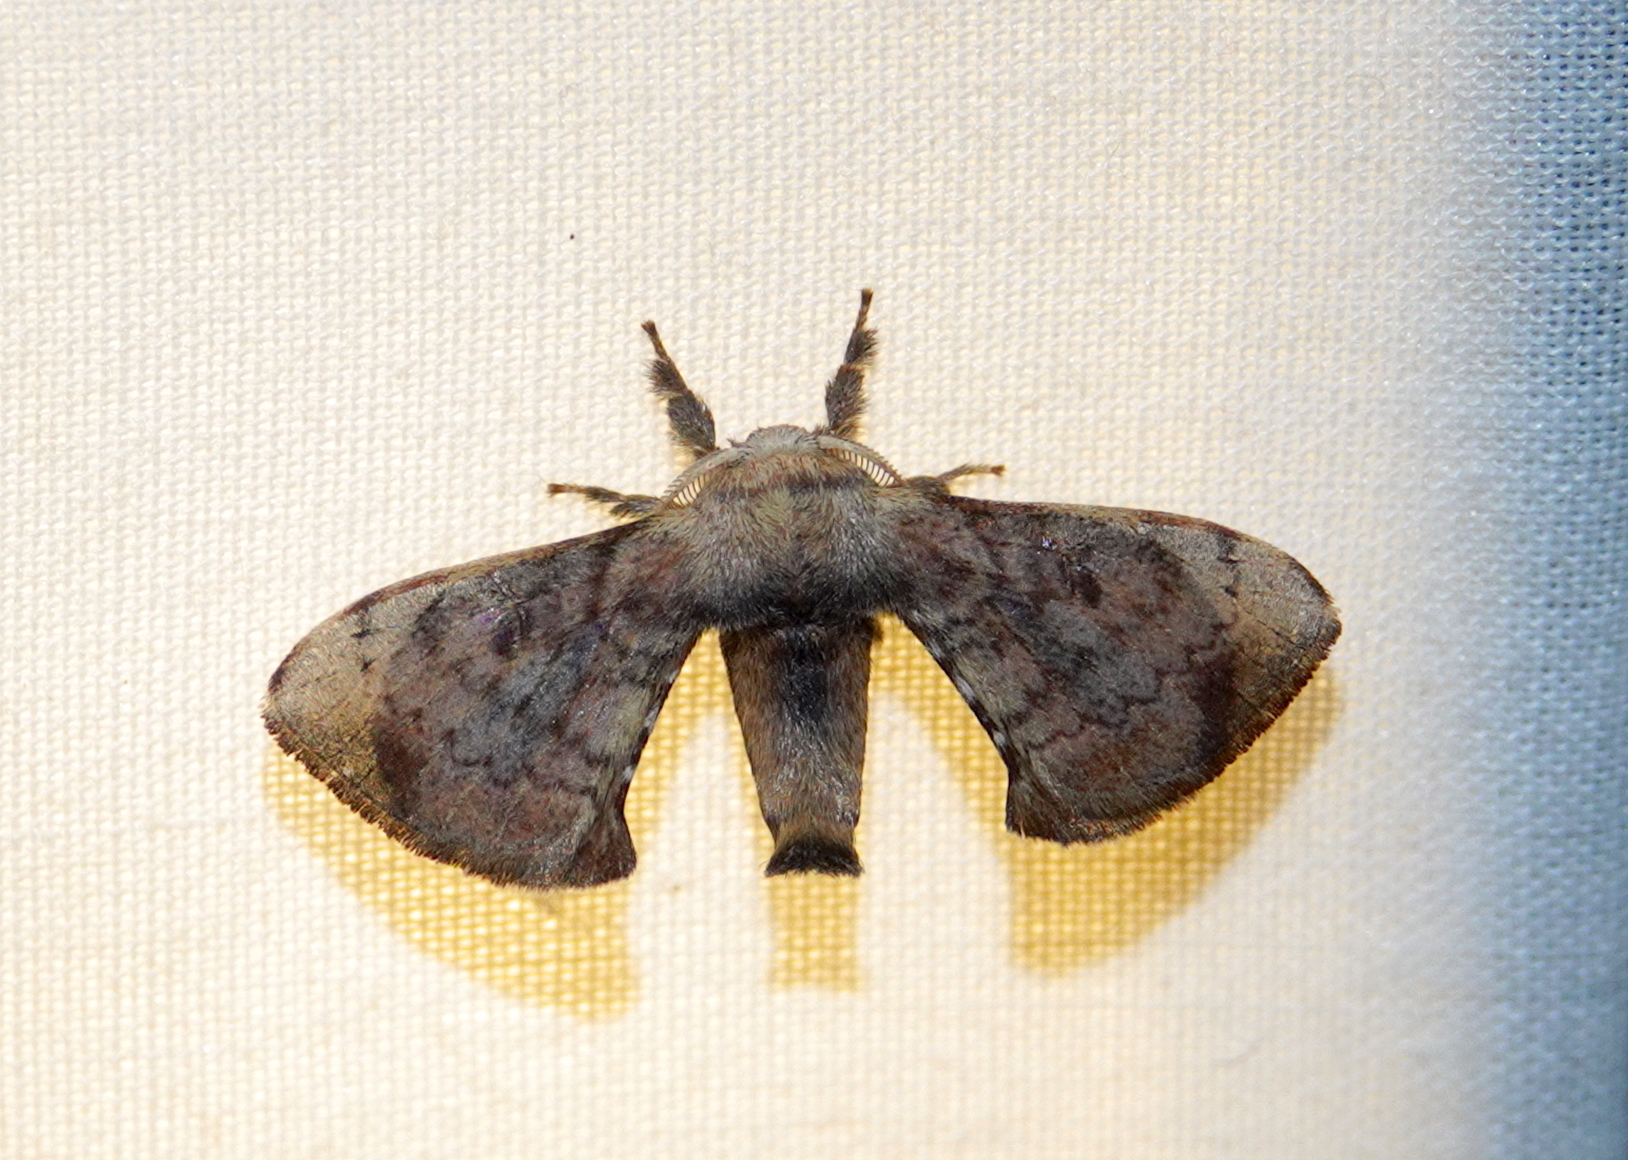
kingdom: Animalia
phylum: Arthropoda
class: Insecta
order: Lepidoptera
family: Bombycidae
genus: Trilocha
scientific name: Trilocha varians
